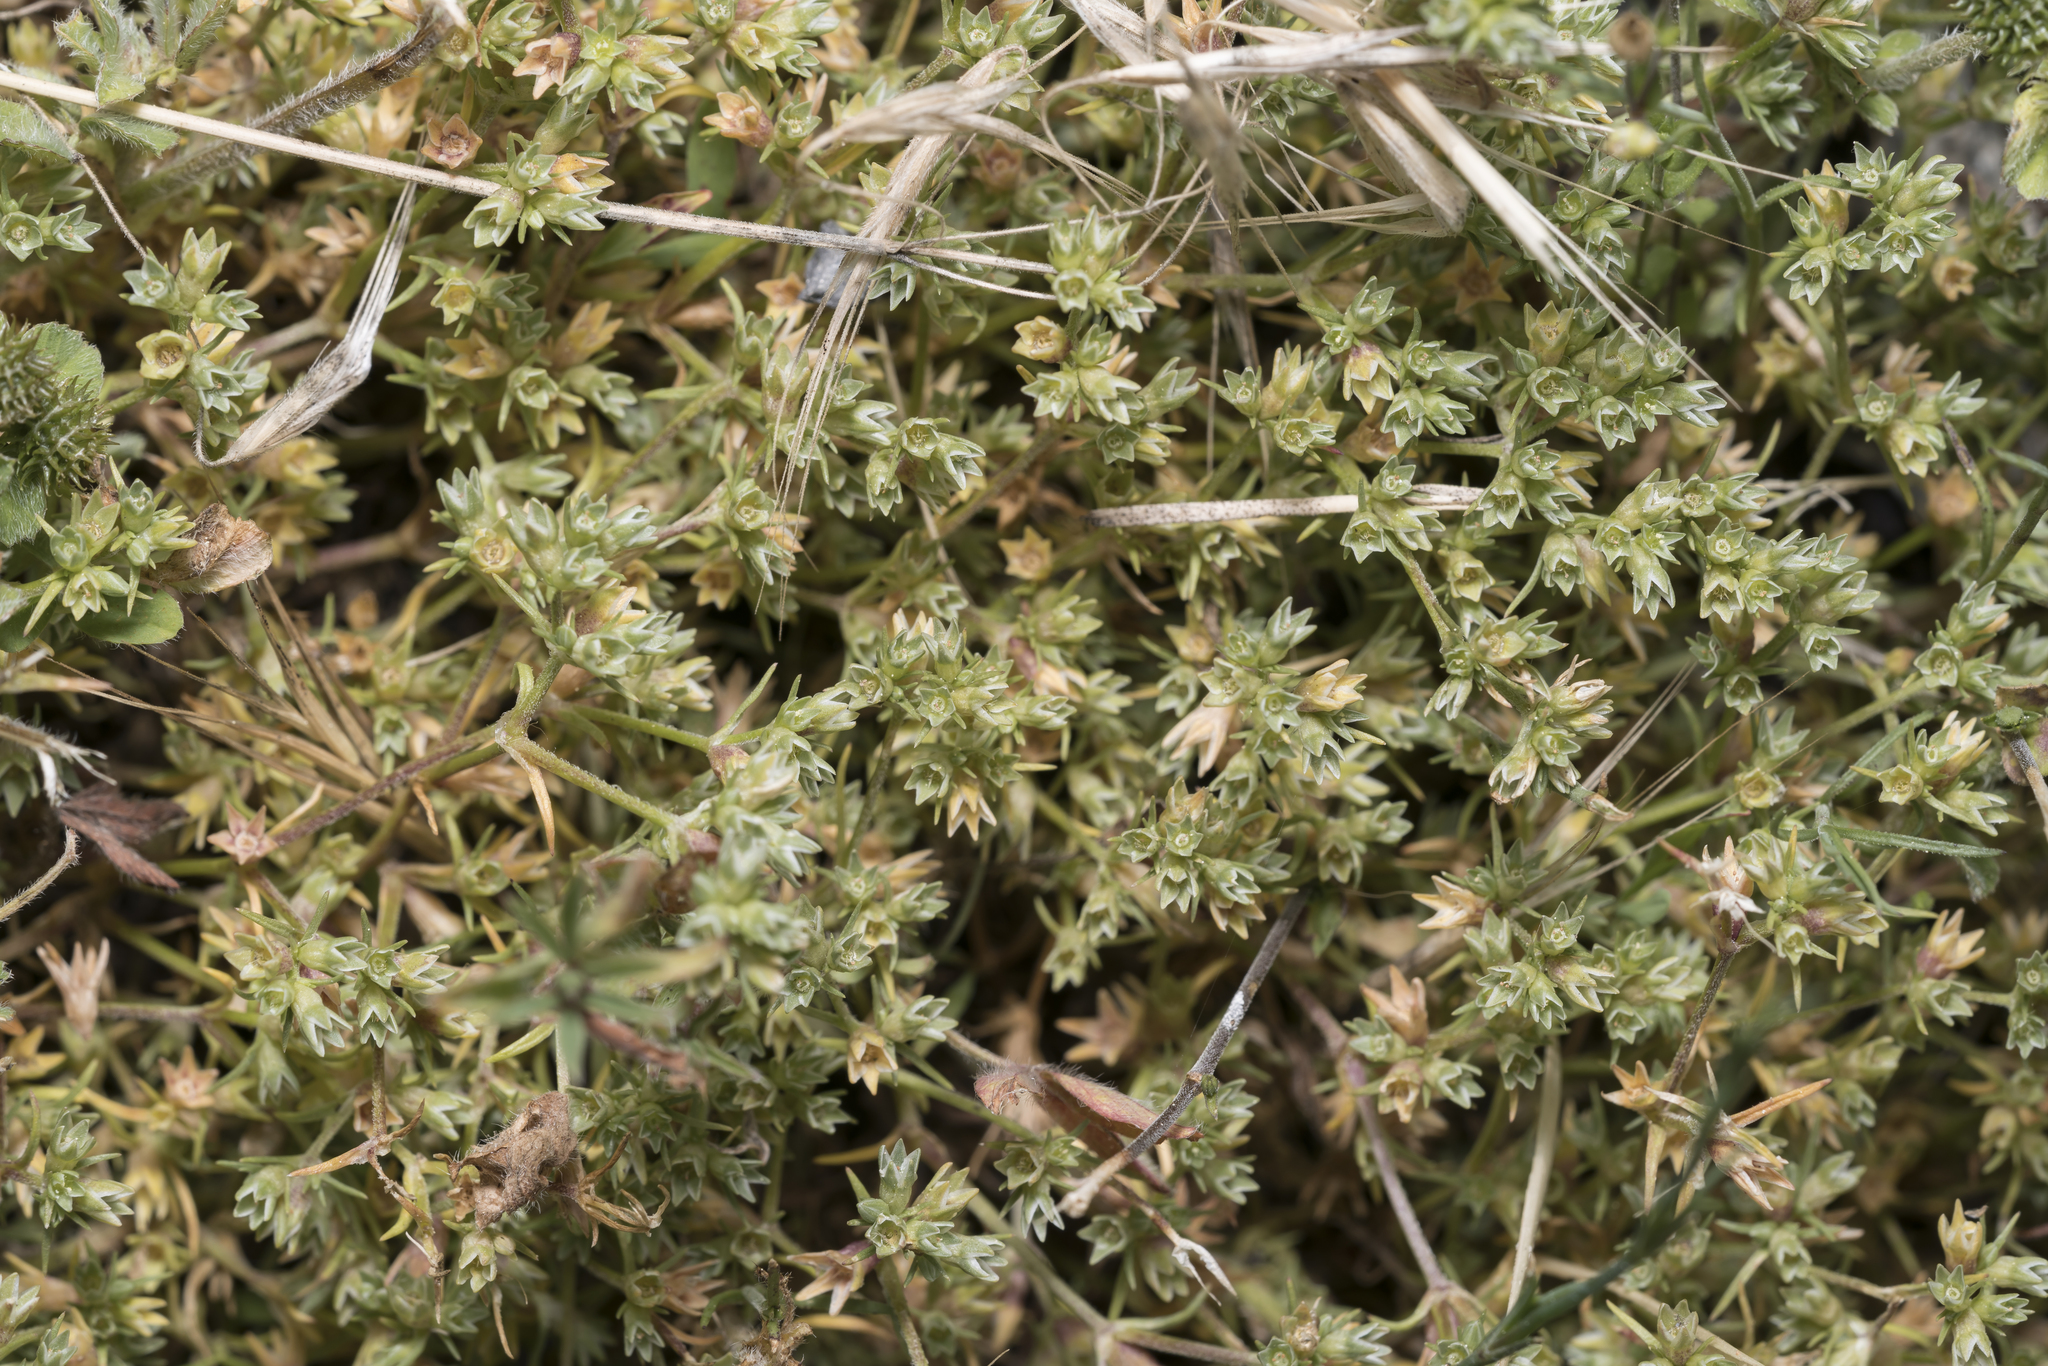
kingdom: Plantae
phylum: Tracheophyta
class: Magnoliopsida
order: Caryophyllales
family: Caryophyllaceae
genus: Scleranthus
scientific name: Scleranthus perennis
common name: Perennial knawel
